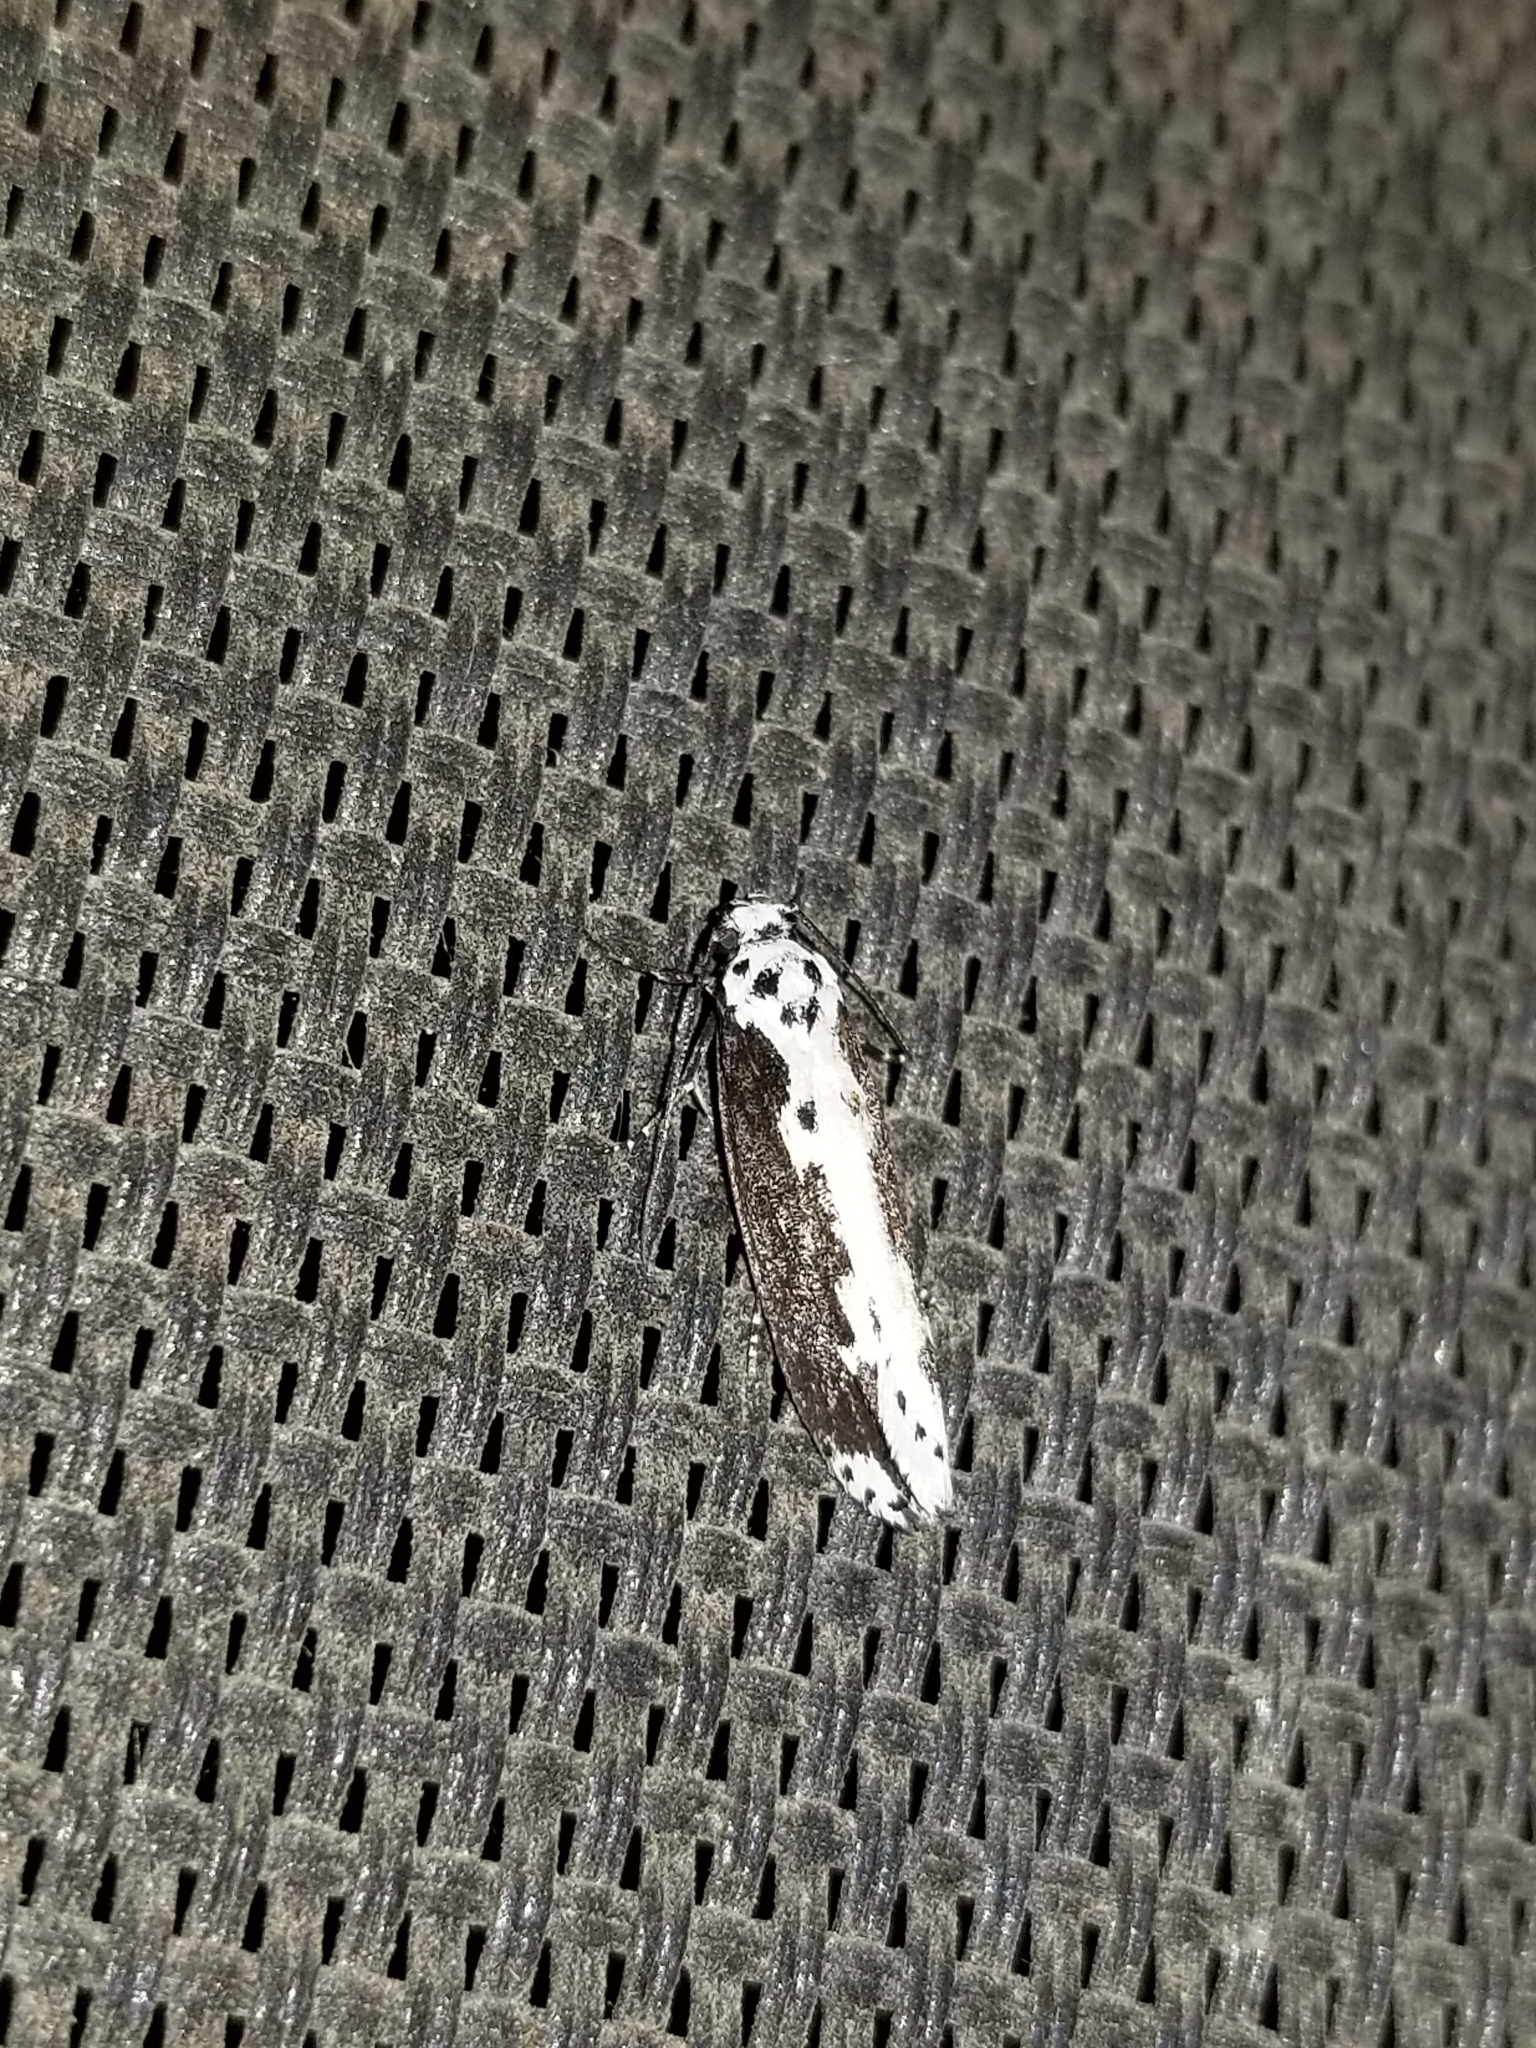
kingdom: Animalia
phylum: Arthropoda
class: Insecta
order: Lepidoptera
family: Ethmiidae
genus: Ethmia
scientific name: Ethmia semilugens
